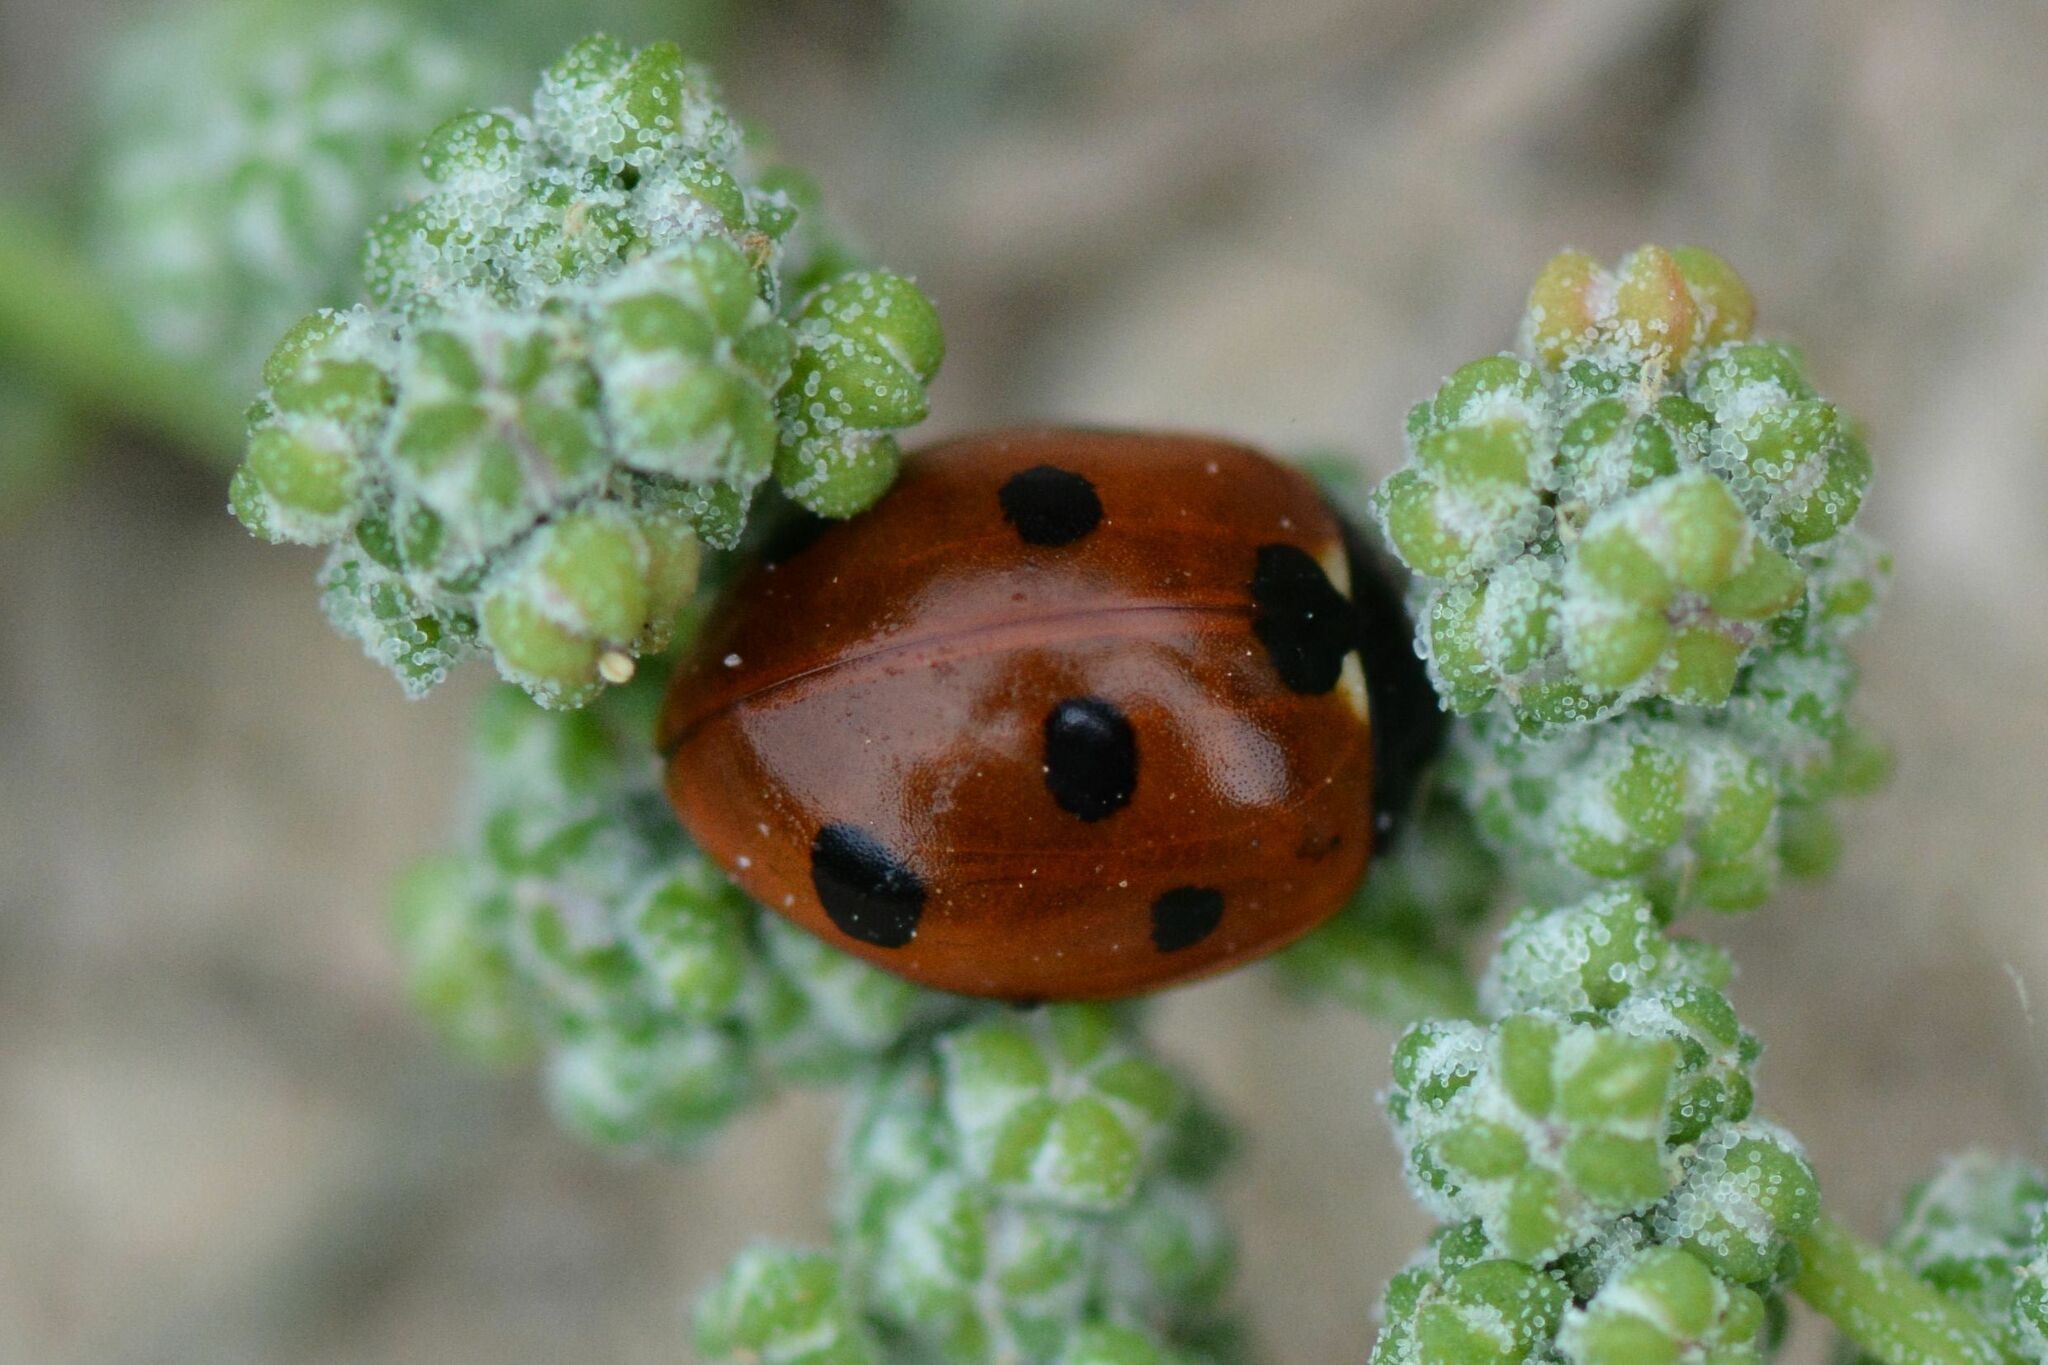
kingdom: Animalia
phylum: Arthropoda
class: Insecta
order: Coleoptera
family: Coccinellidae
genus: Coccinella
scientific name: Coccinella septempunctata
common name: Sevenspotted lady beetle
